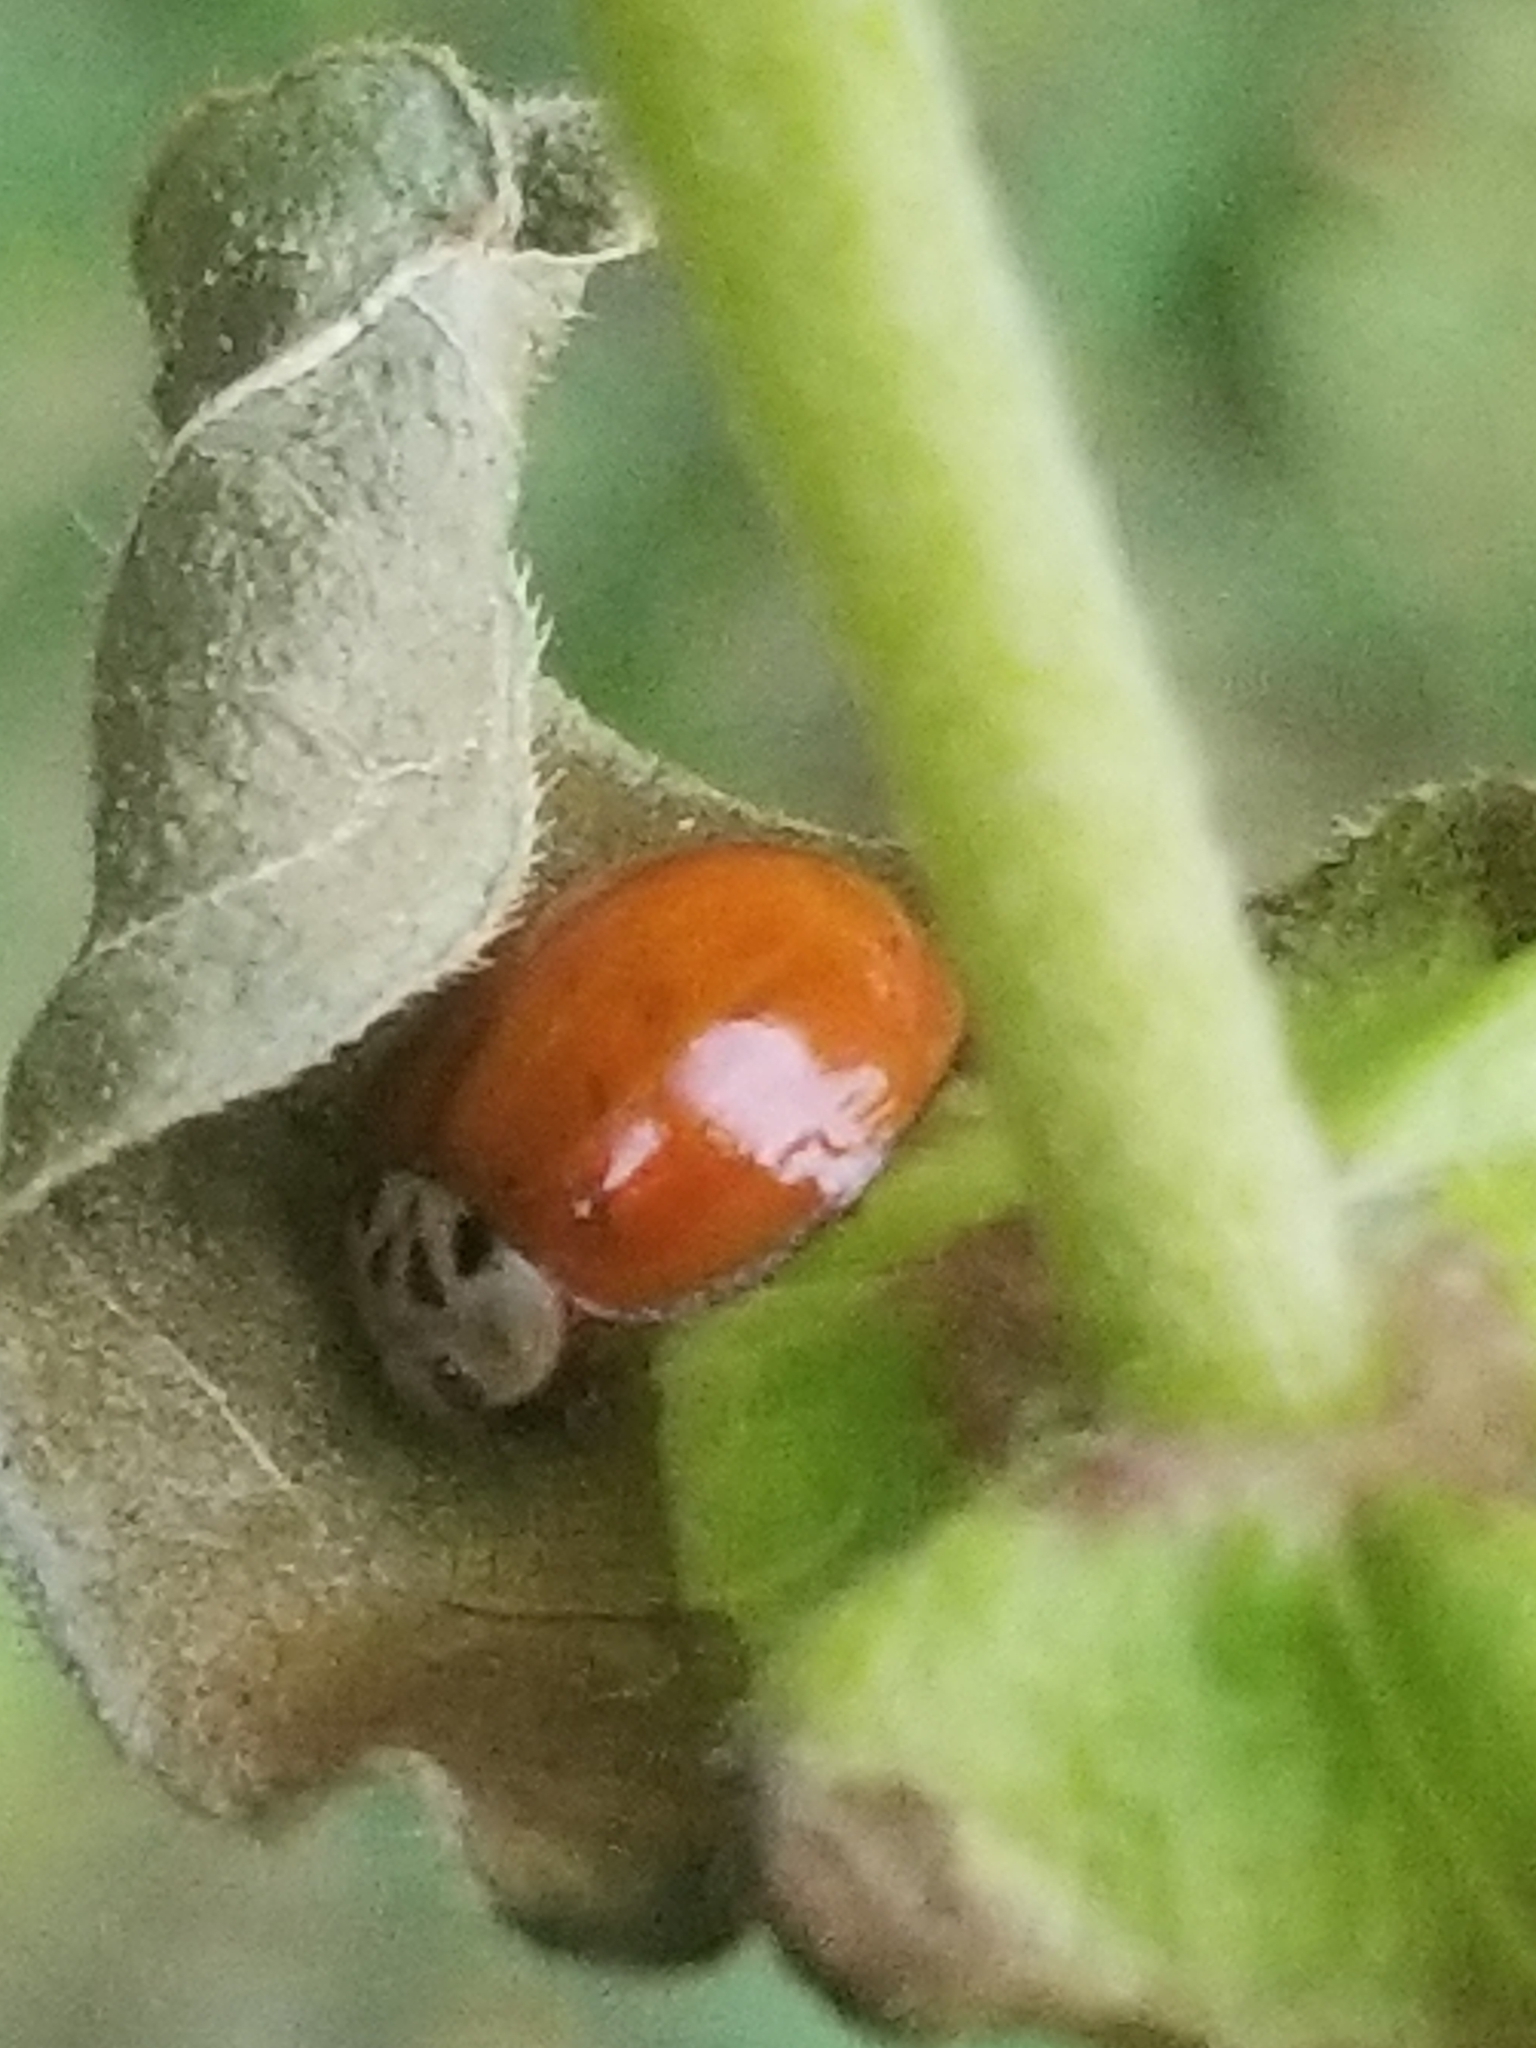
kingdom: Animalia
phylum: Arthropoda
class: Insecta
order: Coleoptera
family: Coccinellidae
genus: Harmonia
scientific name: Harmonia axyridis
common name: Harlequin ladybird
